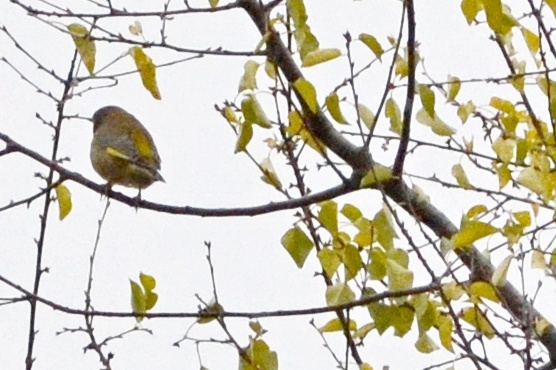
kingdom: Plantae
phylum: Tracheophyta
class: Liliopsida
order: Poales
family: Poaceae
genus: Chloris
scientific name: Chloris chloris
